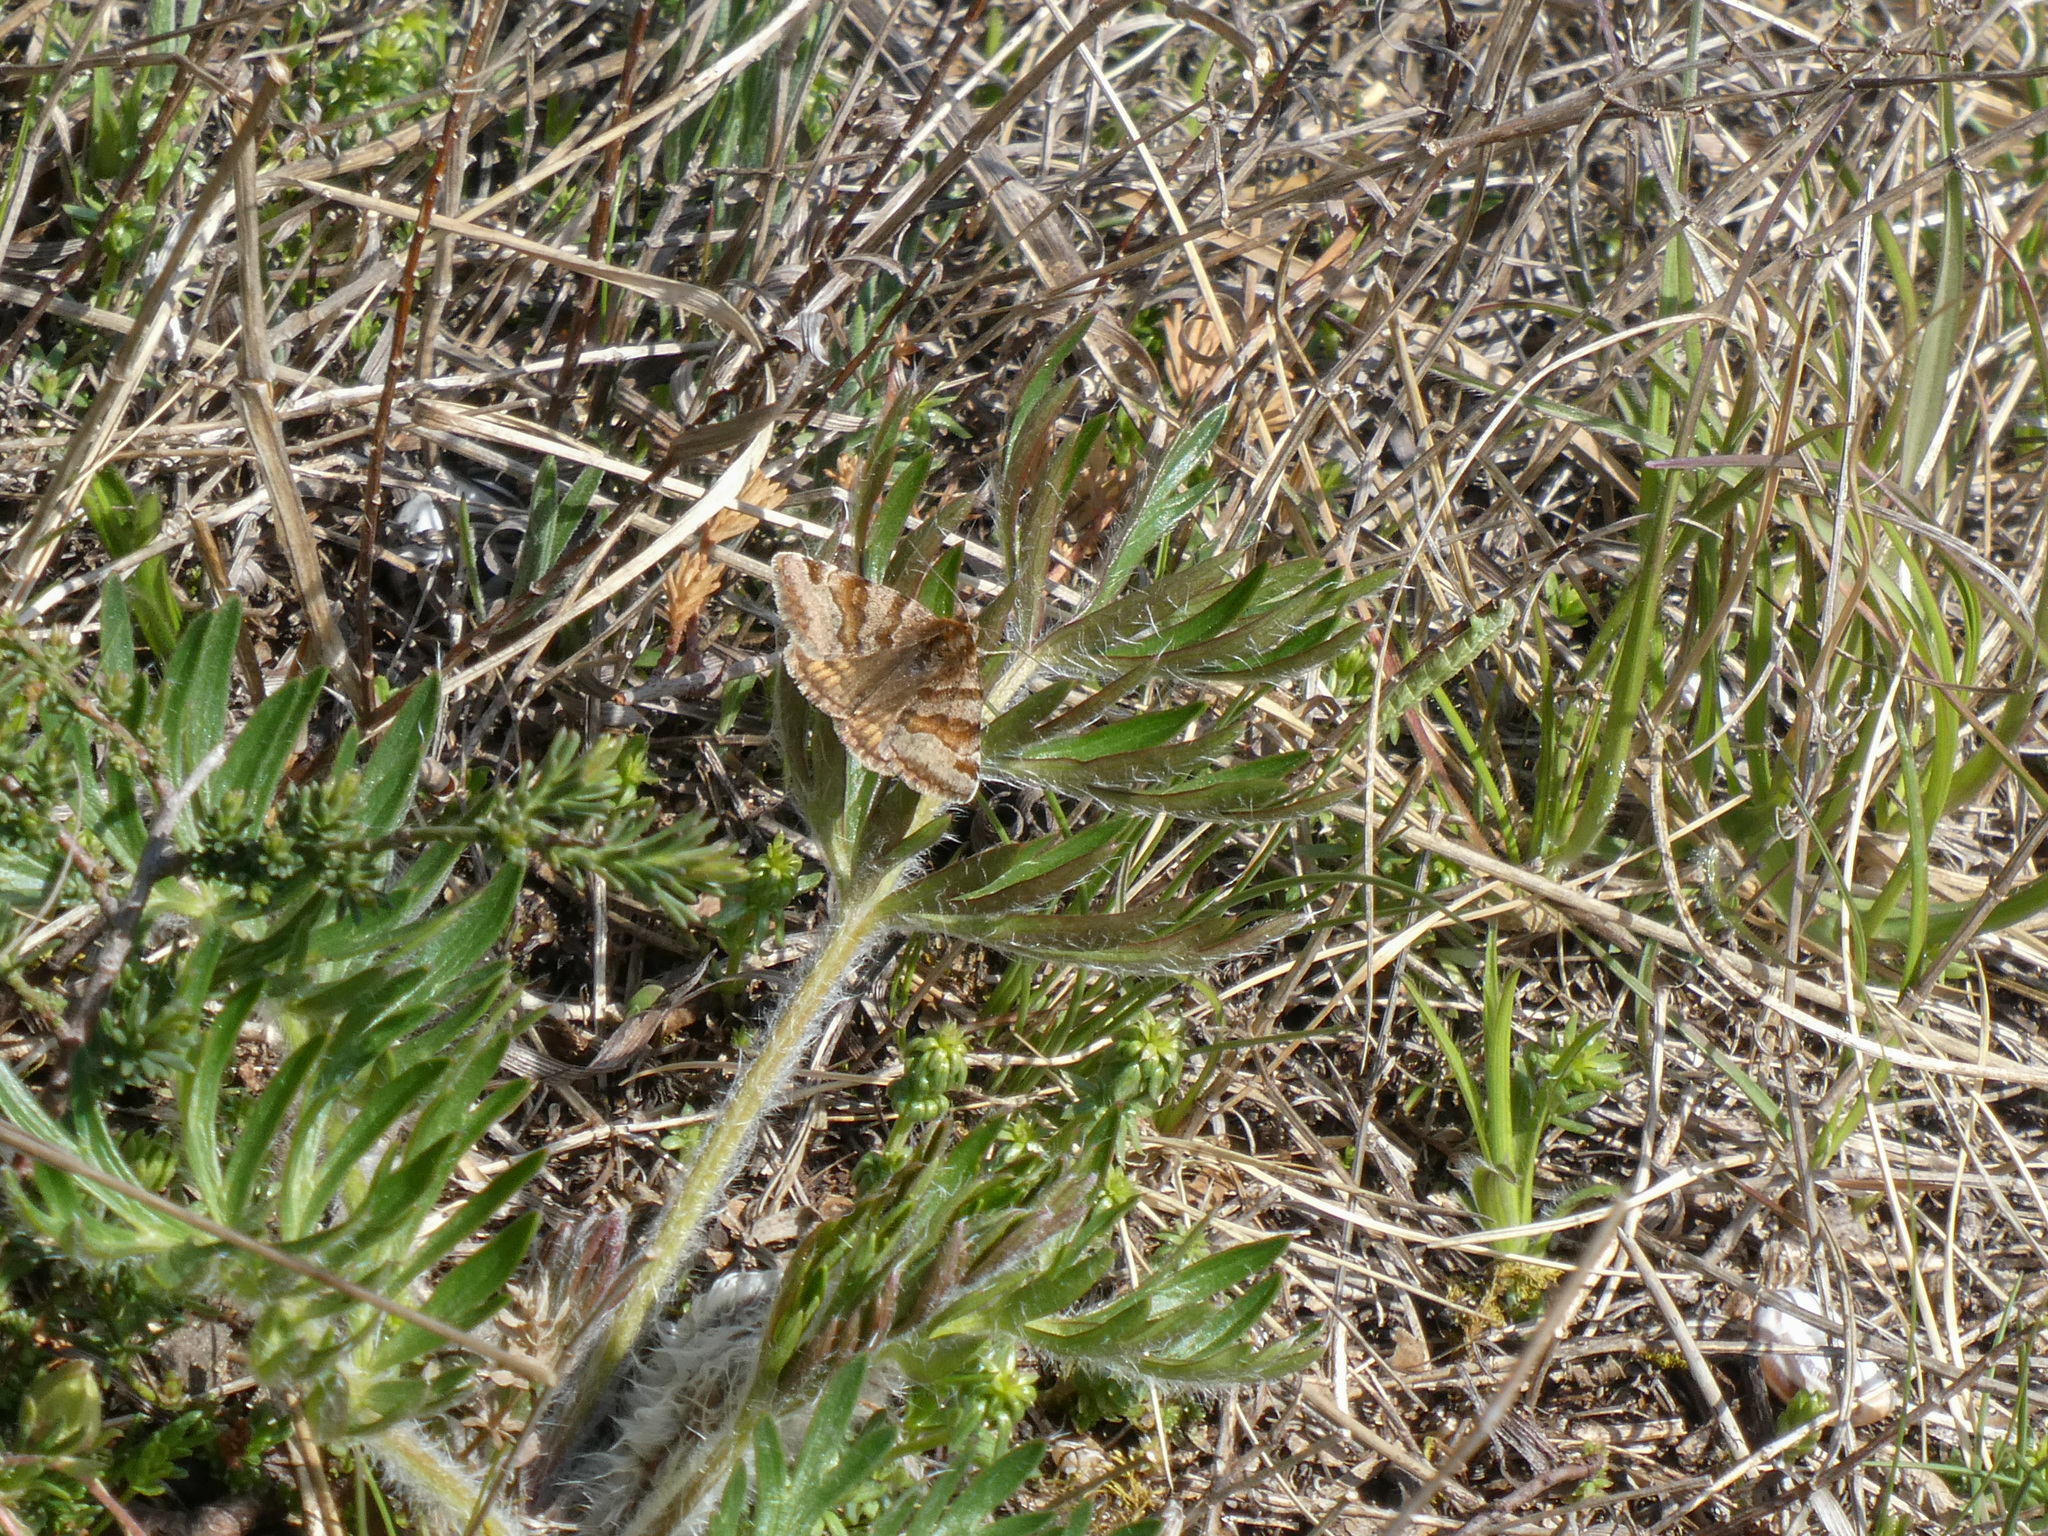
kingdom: Animalia
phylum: Arthropoda
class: Insecta
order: Lepidoptera
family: Erebidae
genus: Euclidia
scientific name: Euclidia glyphica
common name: Burnet companion
